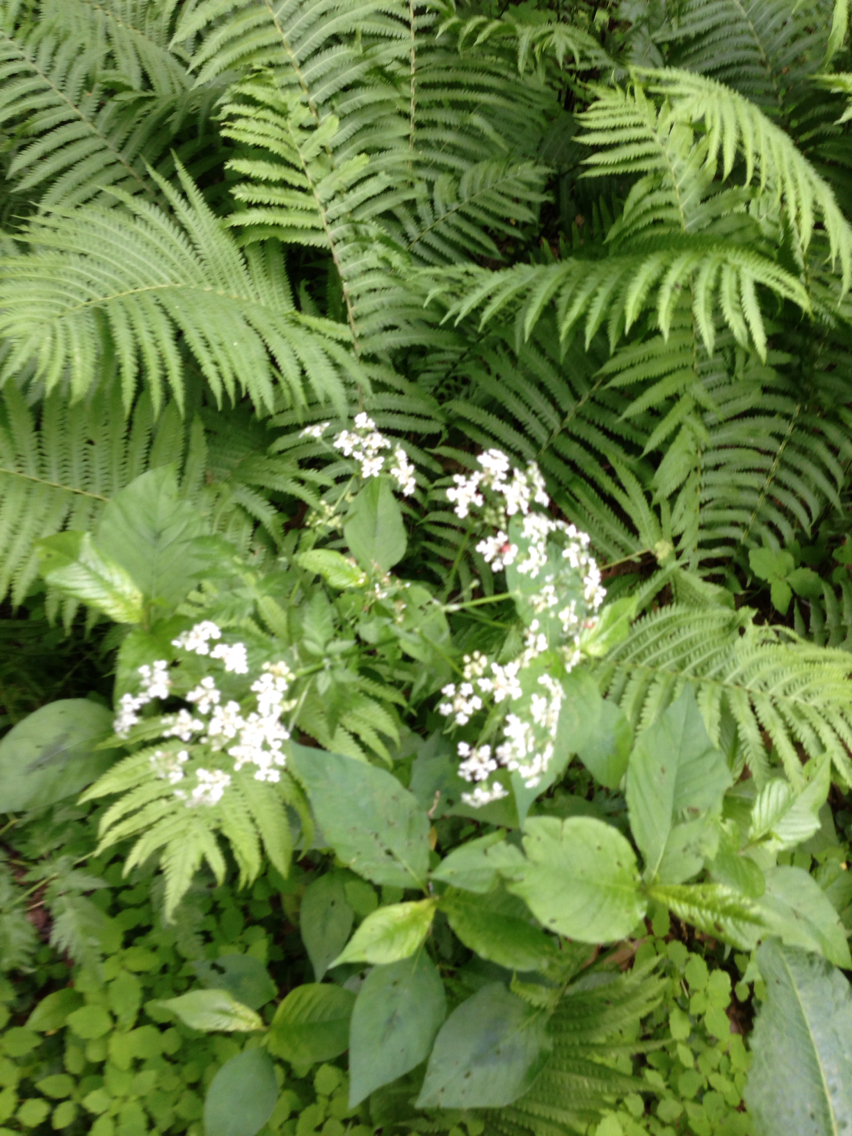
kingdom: Plantae
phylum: Tracheophyta
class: Magnoliopsida
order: Apiales
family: Apiaceae
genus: Anthriscus
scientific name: Anthriscus sylvestris
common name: Cow parsley
